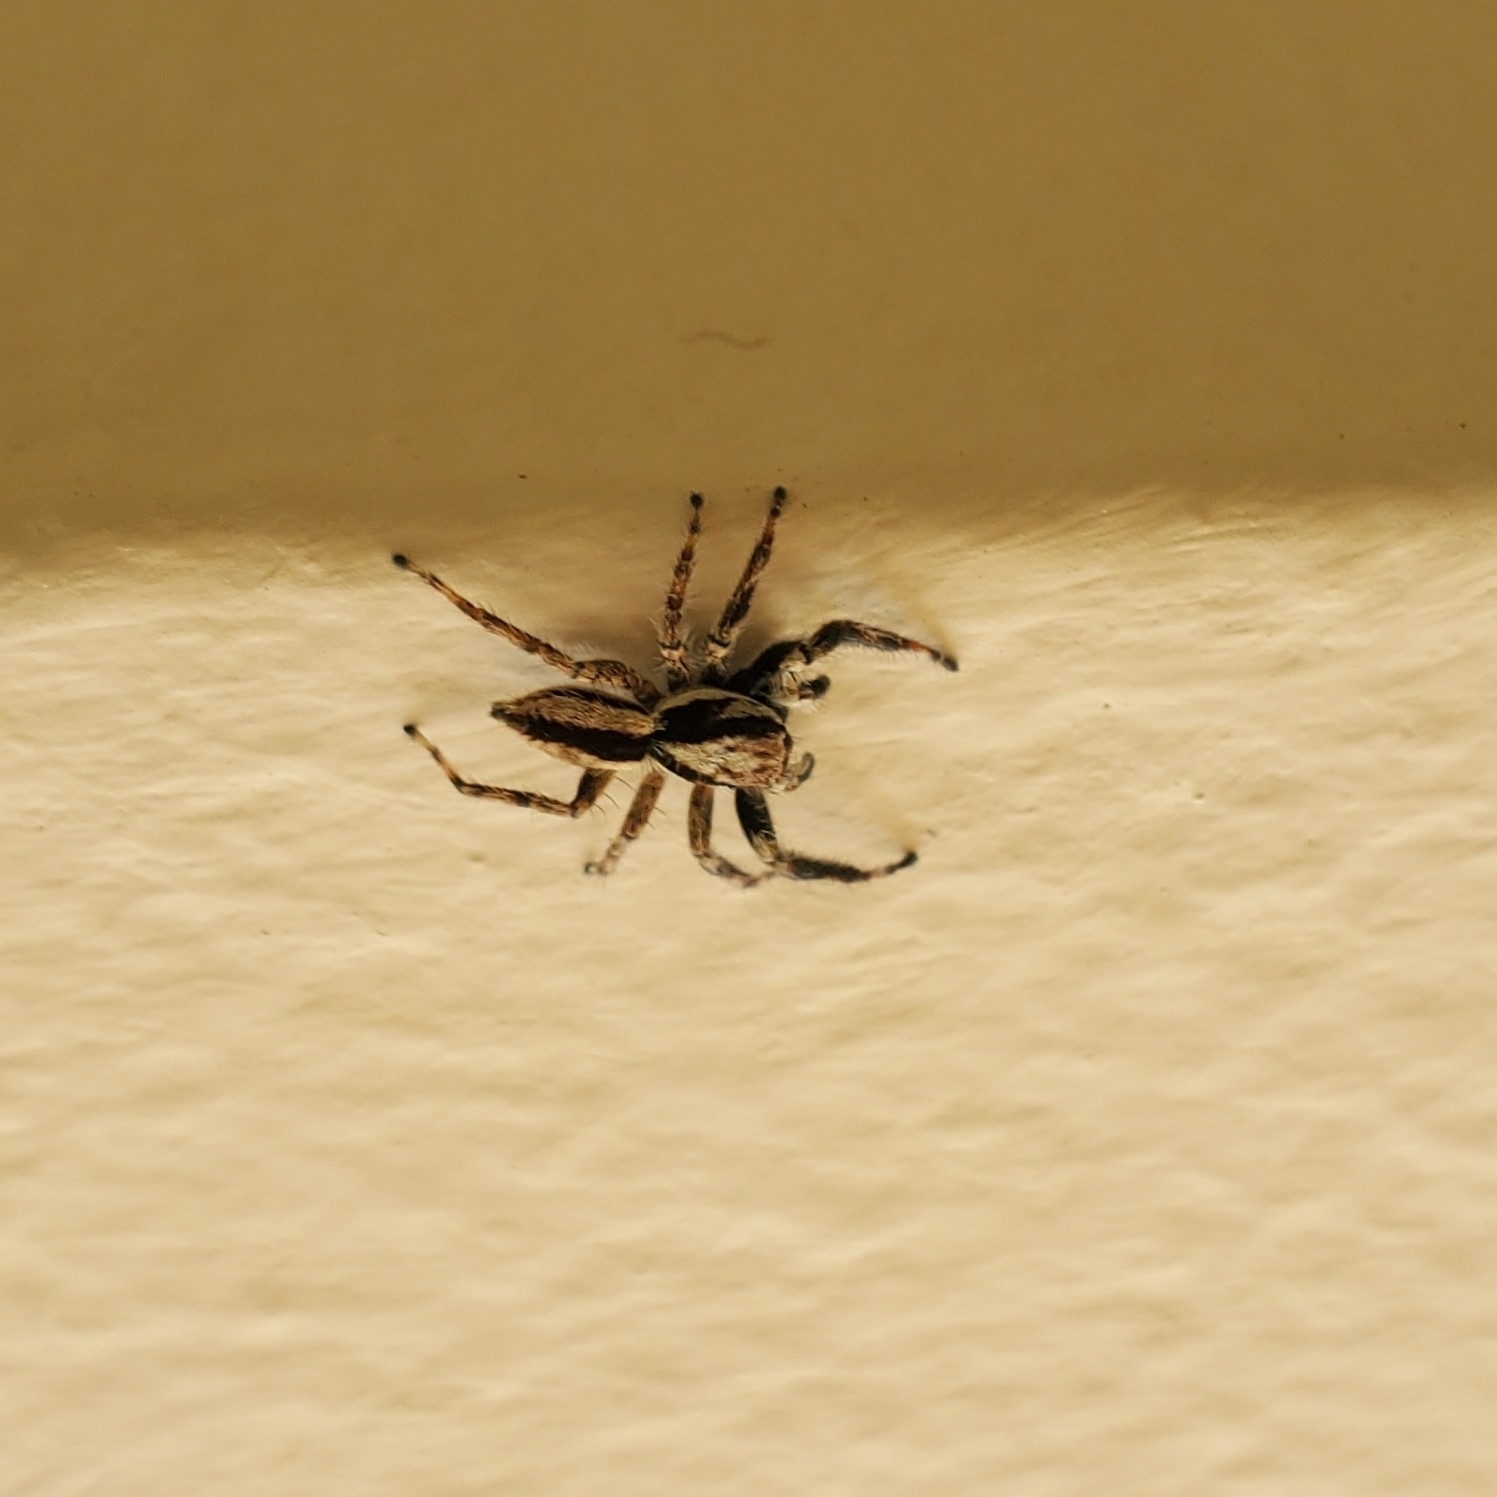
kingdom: Animalia
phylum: Arthropoda
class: Arachnida
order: Araneae
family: Salticidae
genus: Menemerus
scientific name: Menemerus bivittatus
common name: Gray wall jumper
